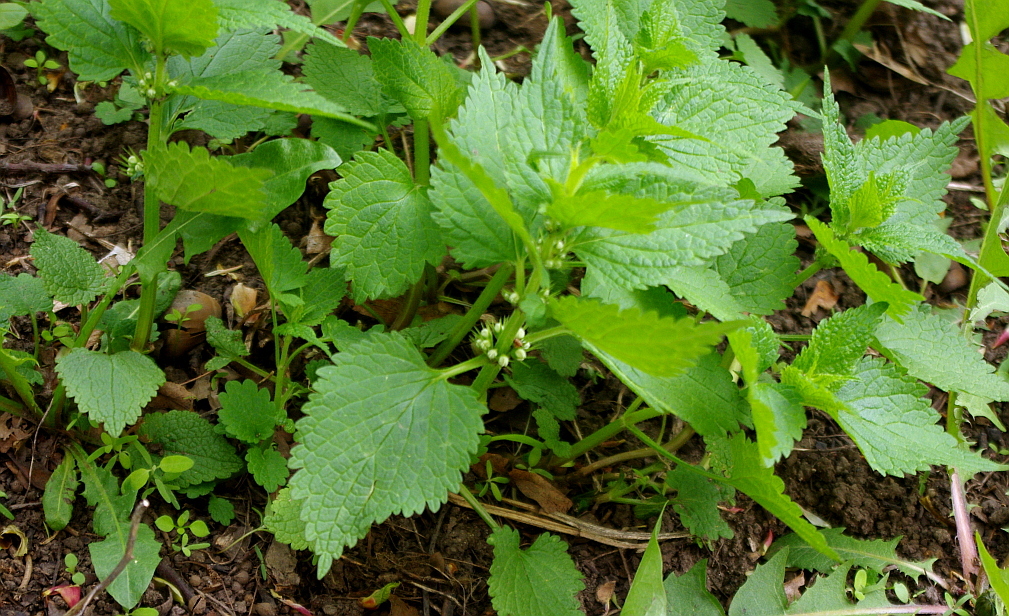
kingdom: Plantae
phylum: Tracheophyta
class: Magnoliopsida
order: Lamiales
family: Lamiaceae
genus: Lamium
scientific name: Lamium album
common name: White dead-nettle
